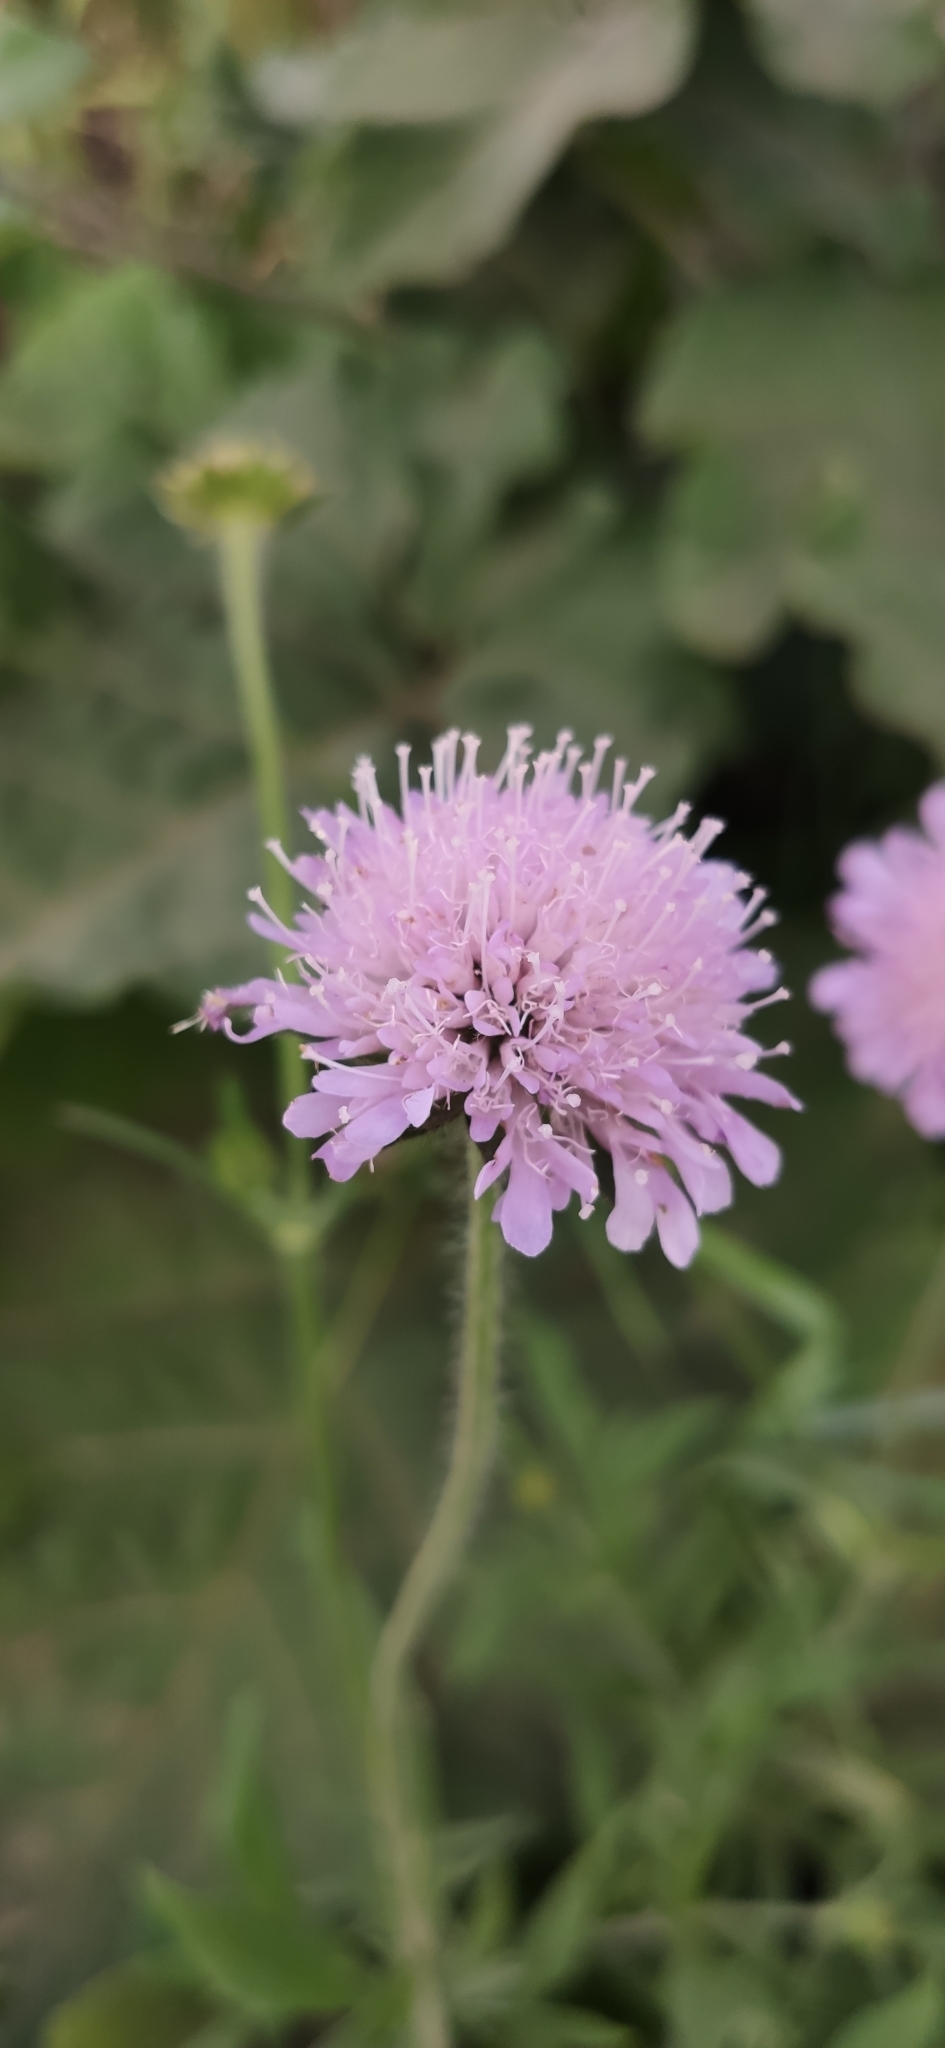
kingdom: Plantae
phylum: Tracheophyta
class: Magnoliopsida
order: Dipsacales
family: Caprifoliaceae
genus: Knautia
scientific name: Knautia arvensis
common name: Field scabiosa
